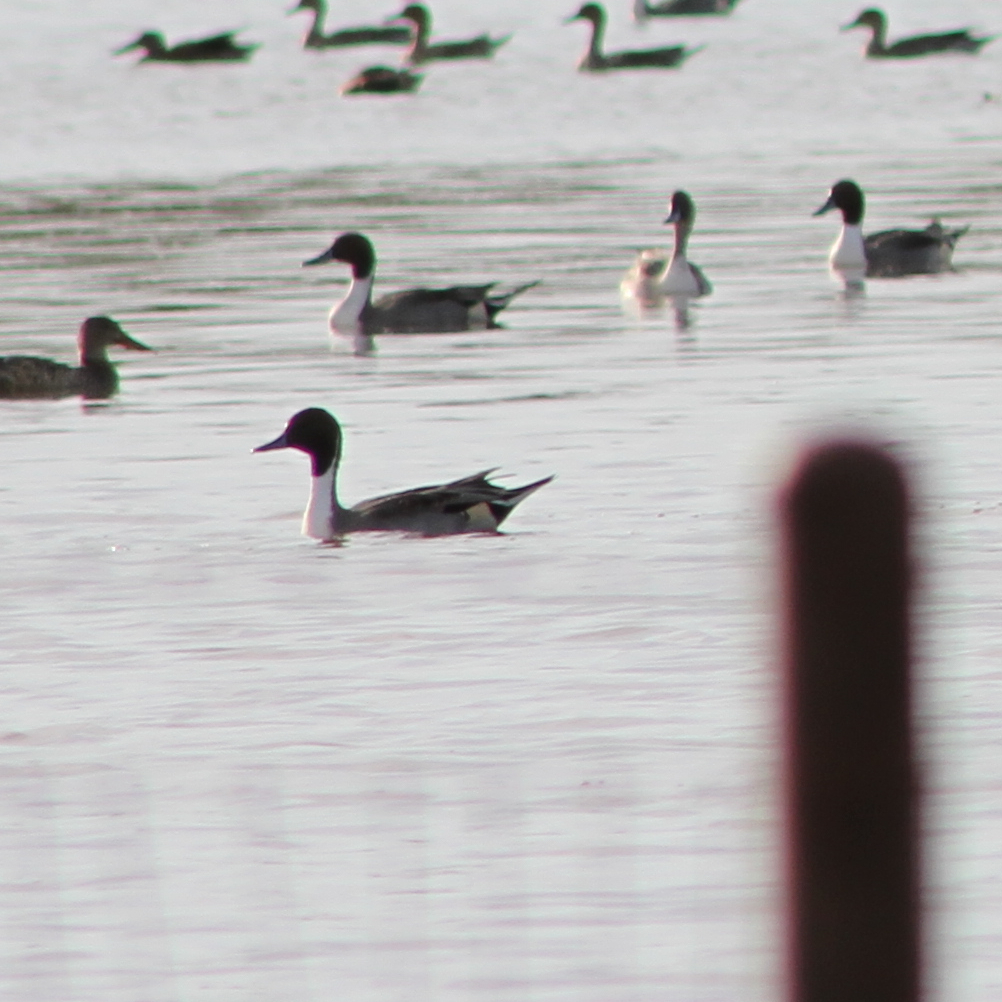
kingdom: Animalia
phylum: Chordata
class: Aves
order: Anseriformes
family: Anatidae
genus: Anas
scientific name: Anas acuta
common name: Northern pintail
